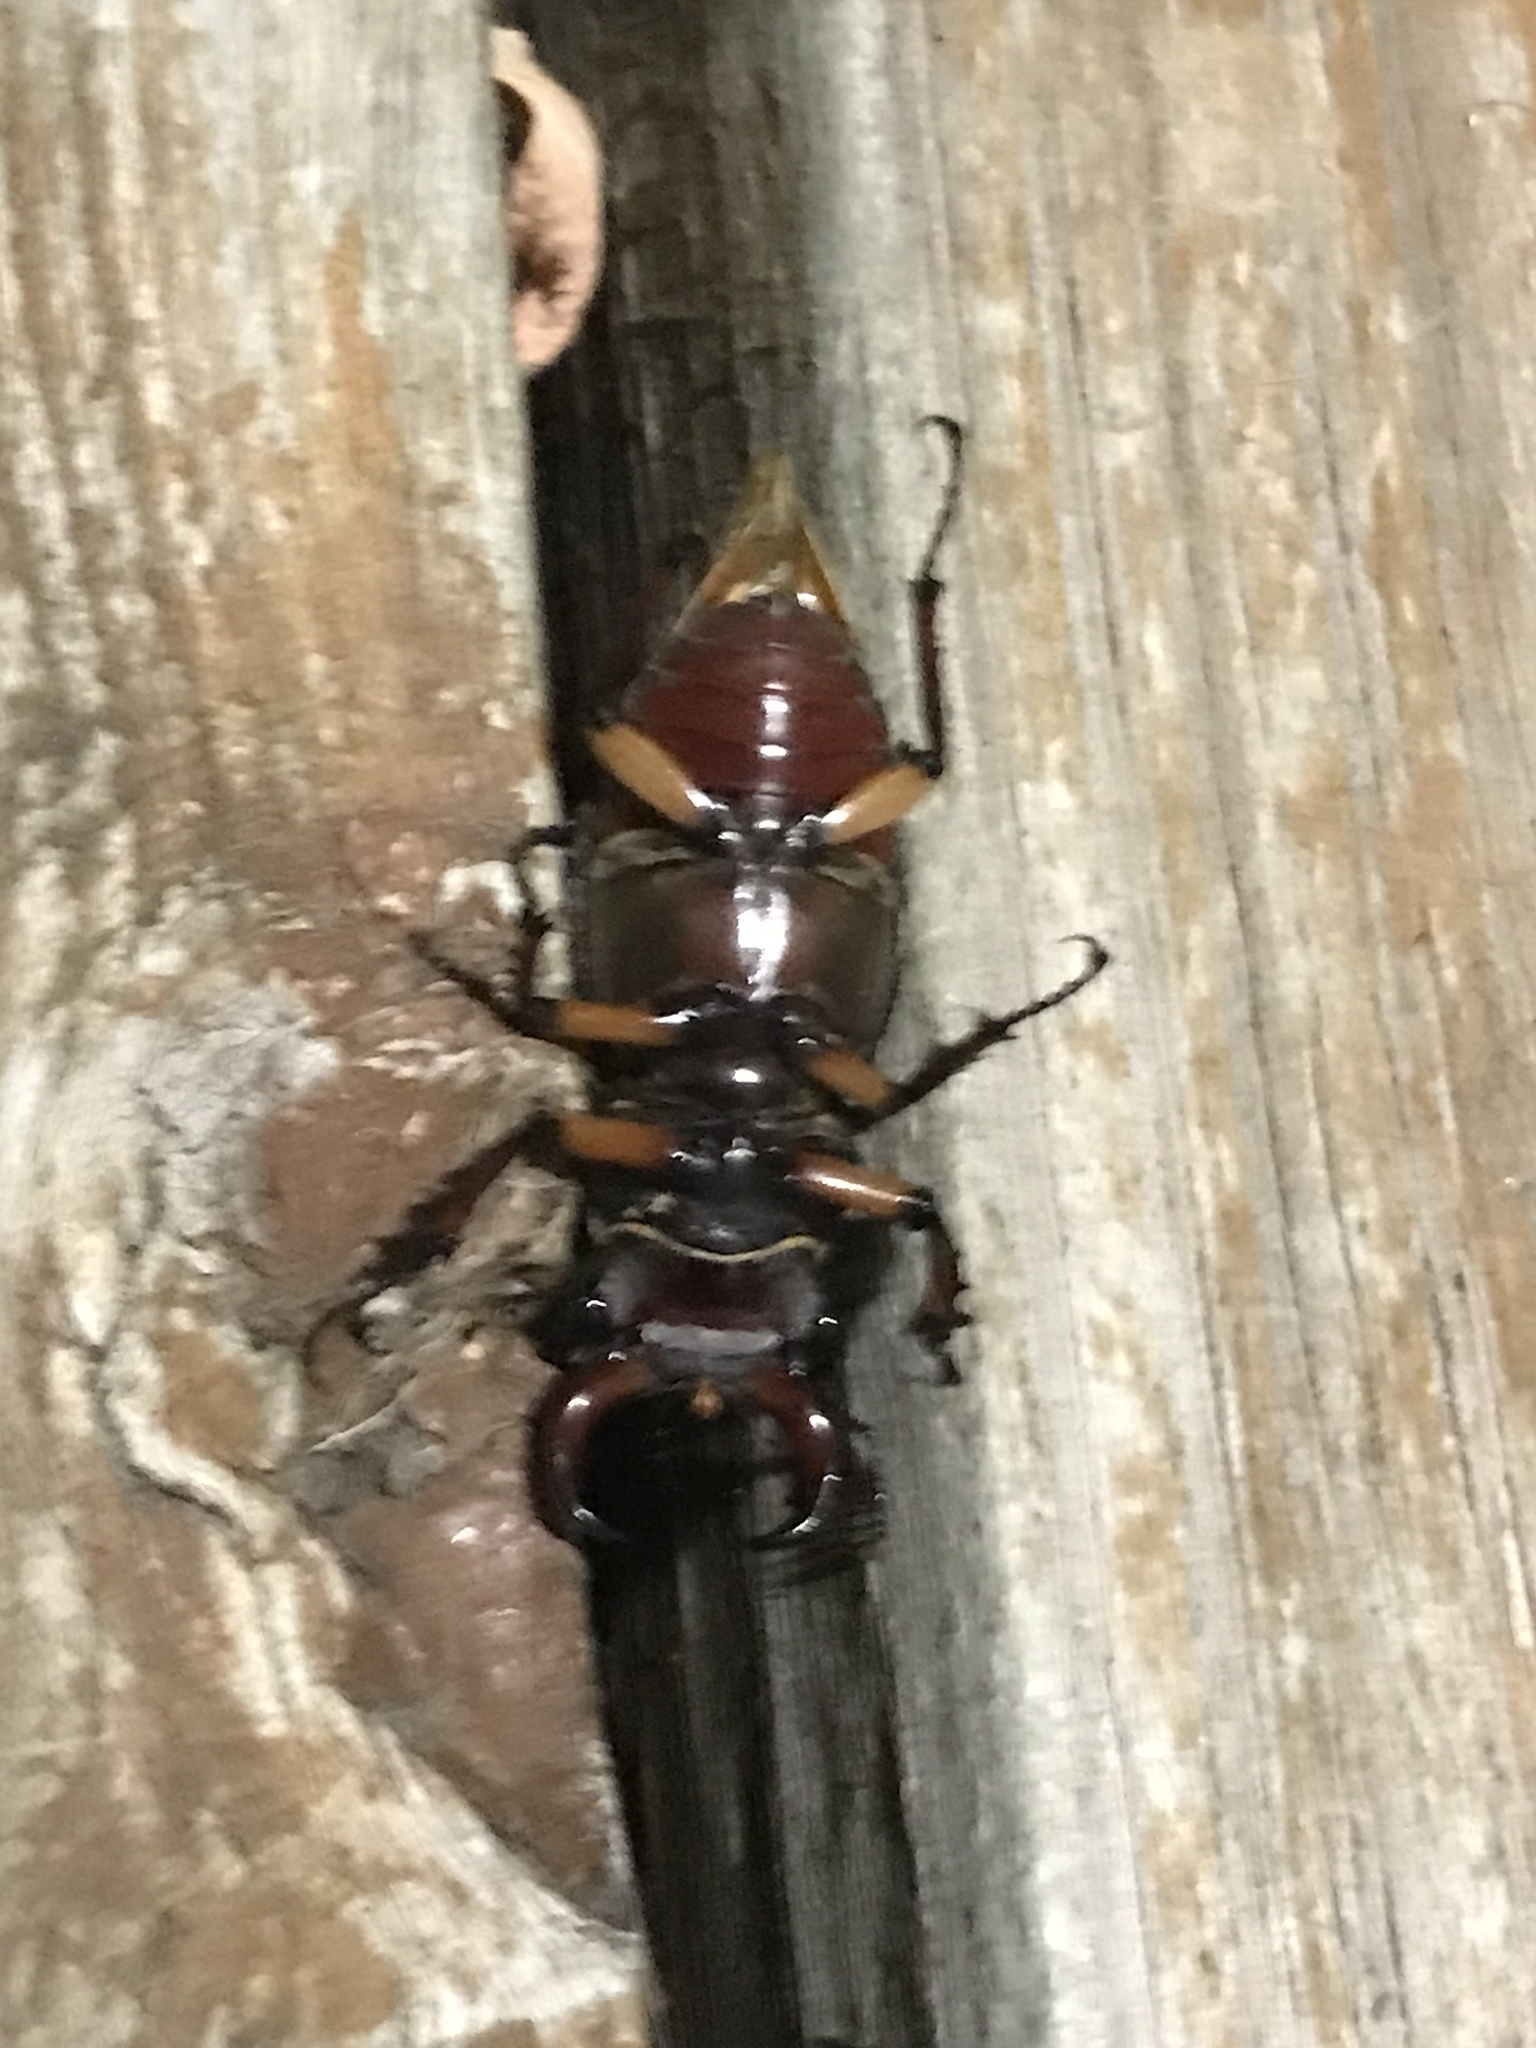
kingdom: Animalia
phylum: Arthropoda
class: Insecta
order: Coleoptera
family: Lucanidae
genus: Lucanus
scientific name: Lucanus capreolus
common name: Stag beetle
